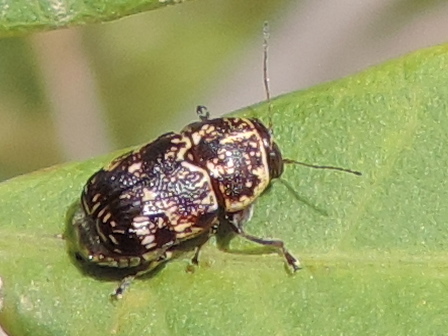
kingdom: Animalia
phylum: Arthropoda
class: Insecta
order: Coleoptera
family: Chrysomelidae
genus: Pachybrachis
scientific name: Pachybrachis
